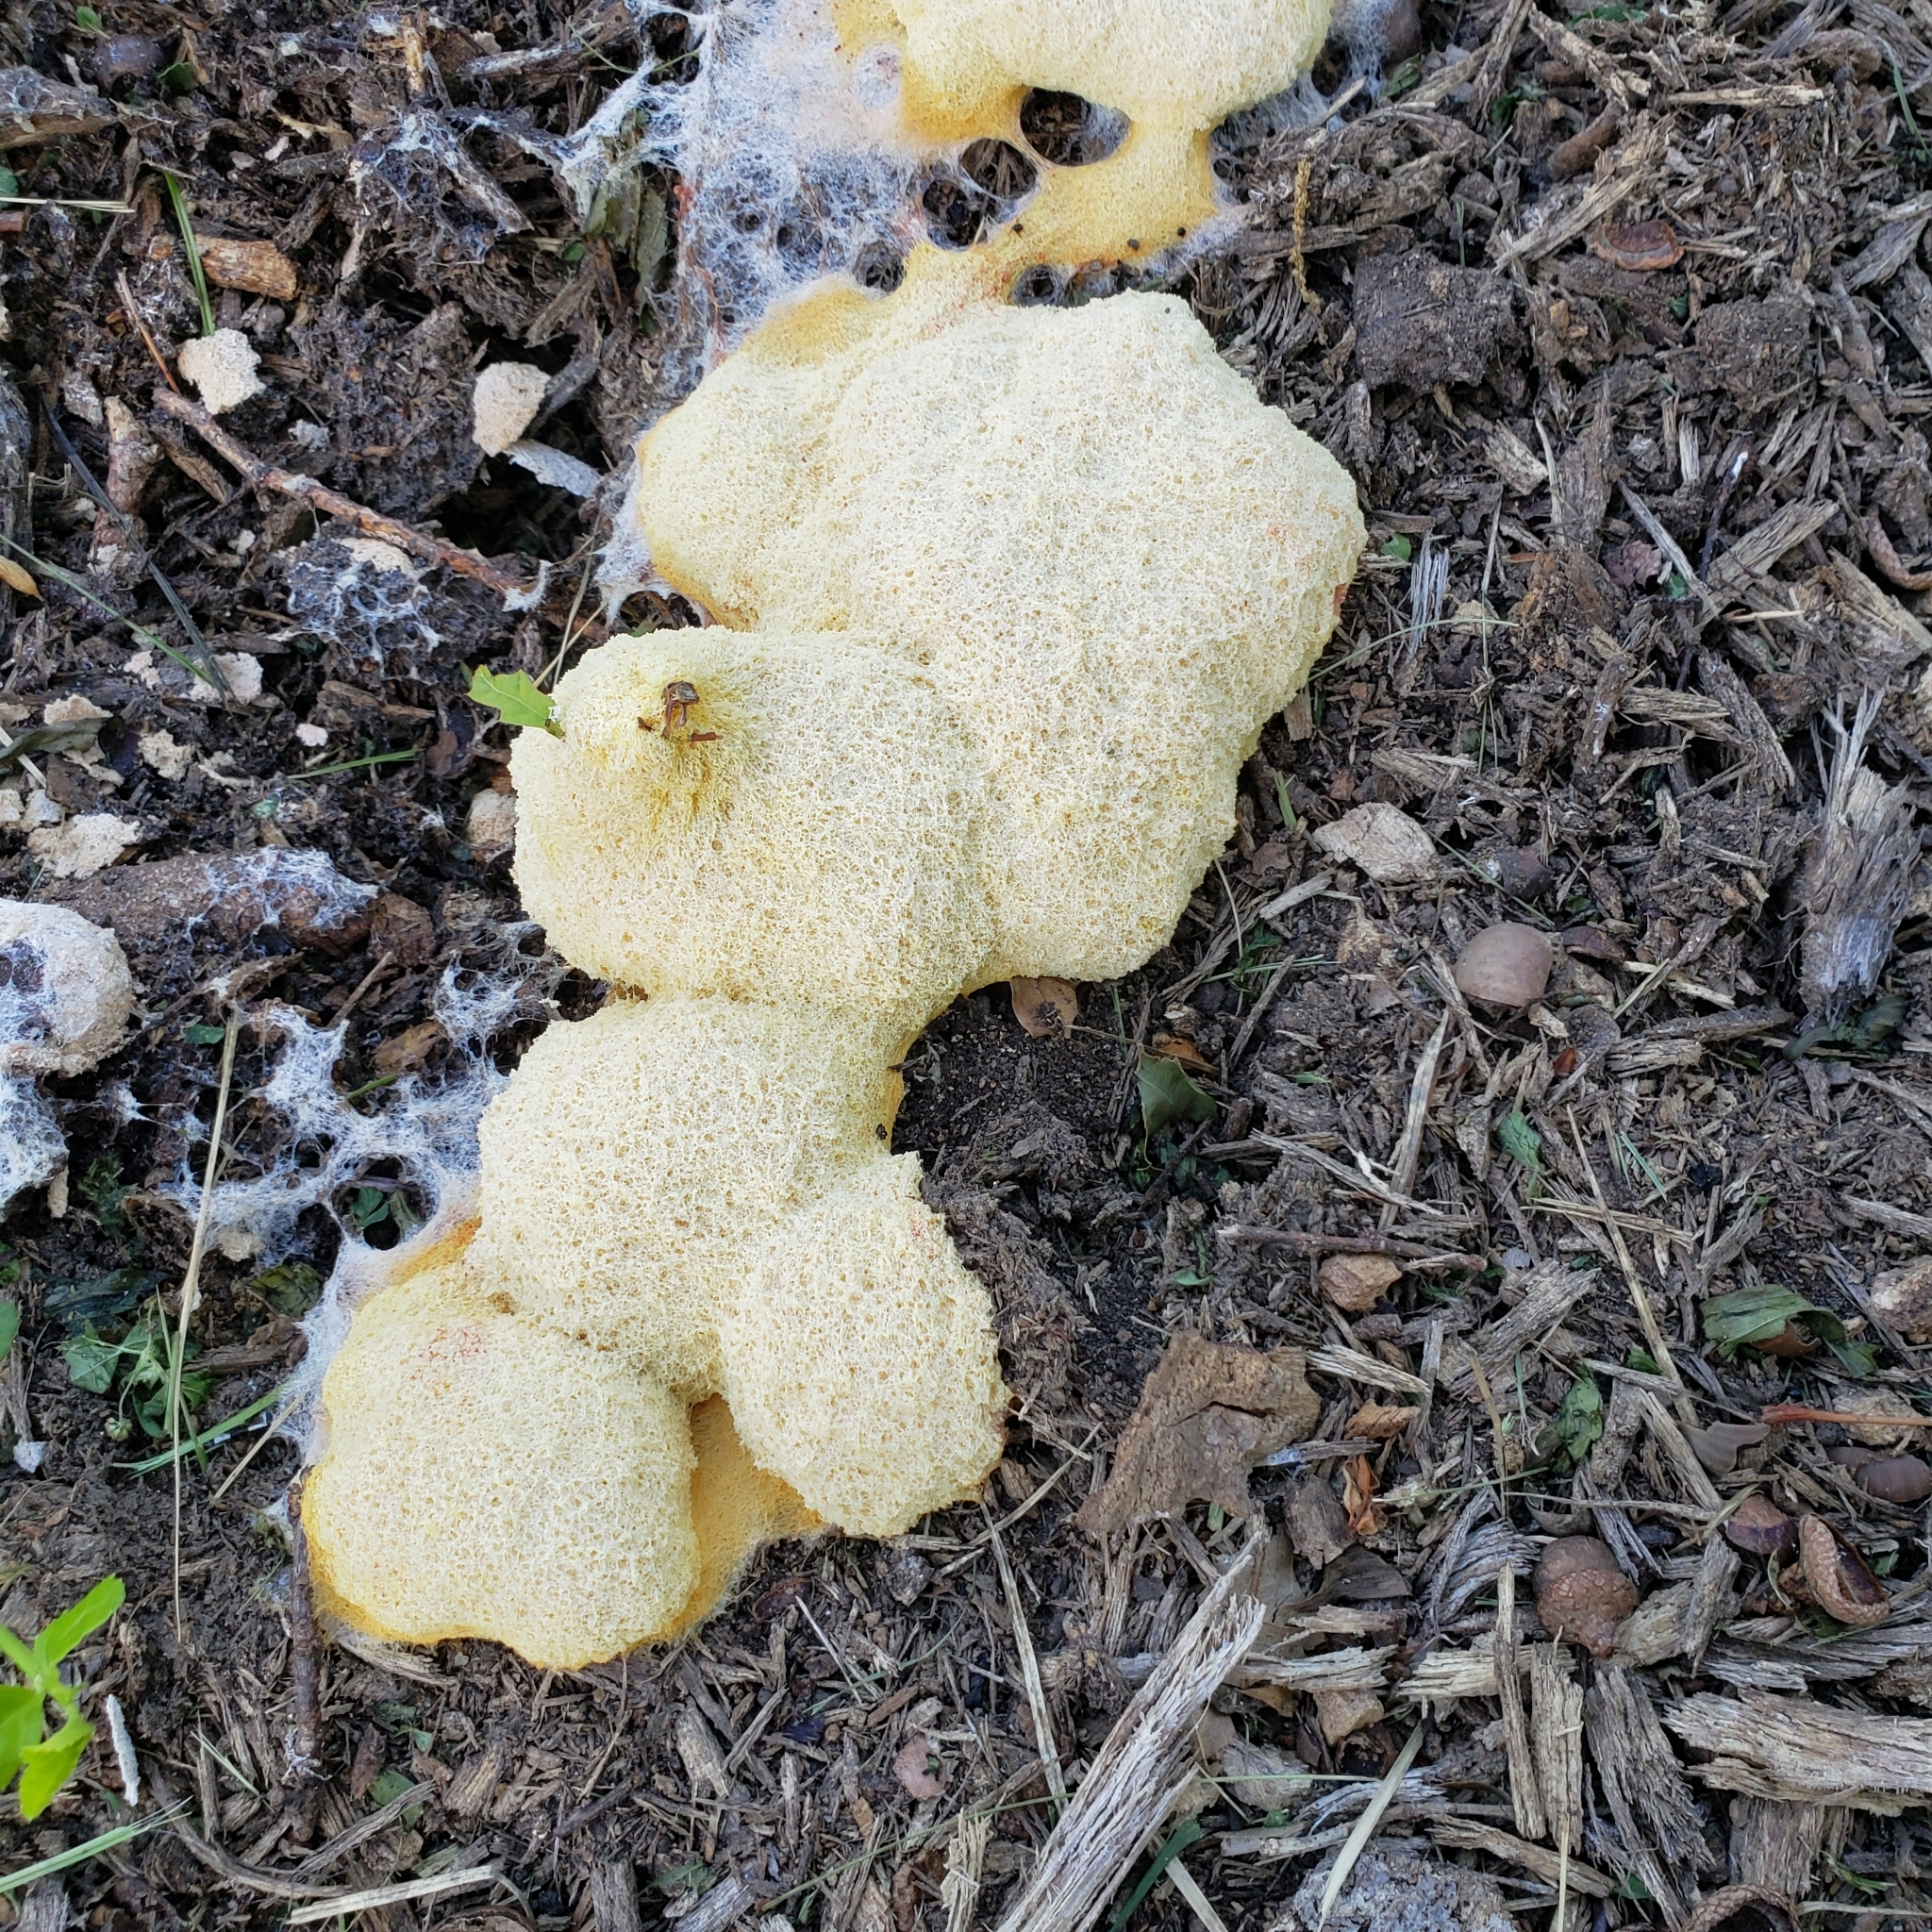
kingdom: Protozoa
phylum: Mycetozoa
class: Myxomycetes
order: Physarales
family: Physaraceae
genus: Fuligo
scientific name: Fuligo septica
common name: Dog vomit slime mold
